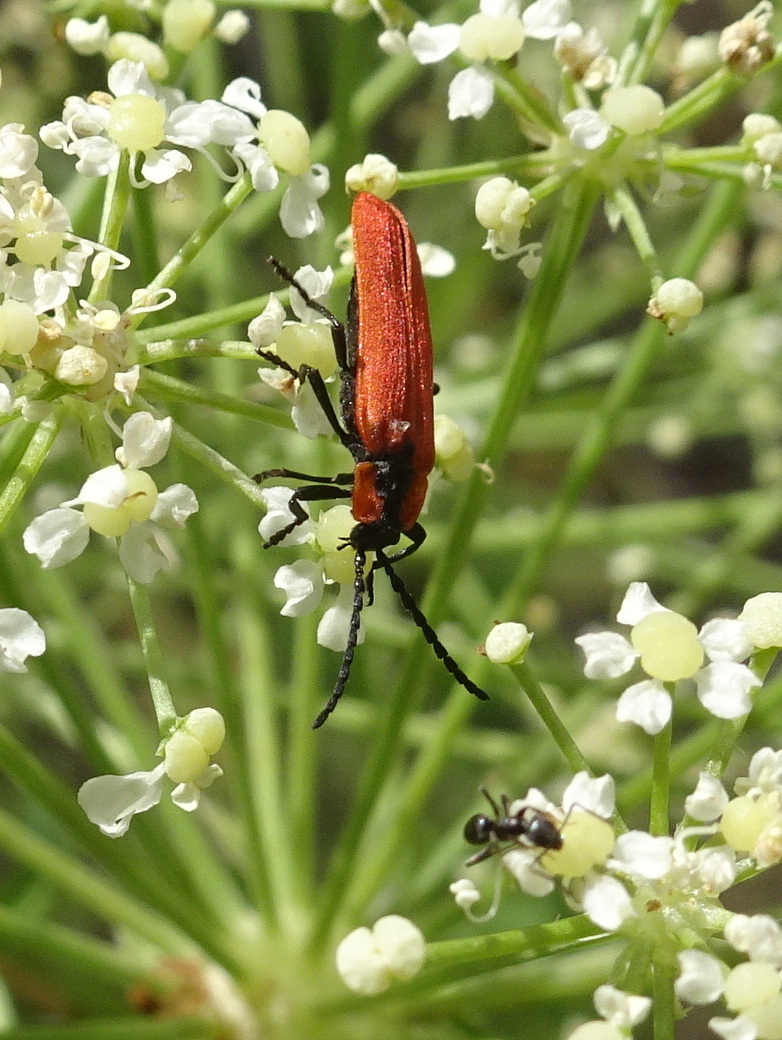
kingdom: Animalia
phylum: Arthropoda
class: Insecta
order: Coleoptera
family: Lycidae
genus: Lygistopterus
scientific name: Lygistopterus sanguineus
